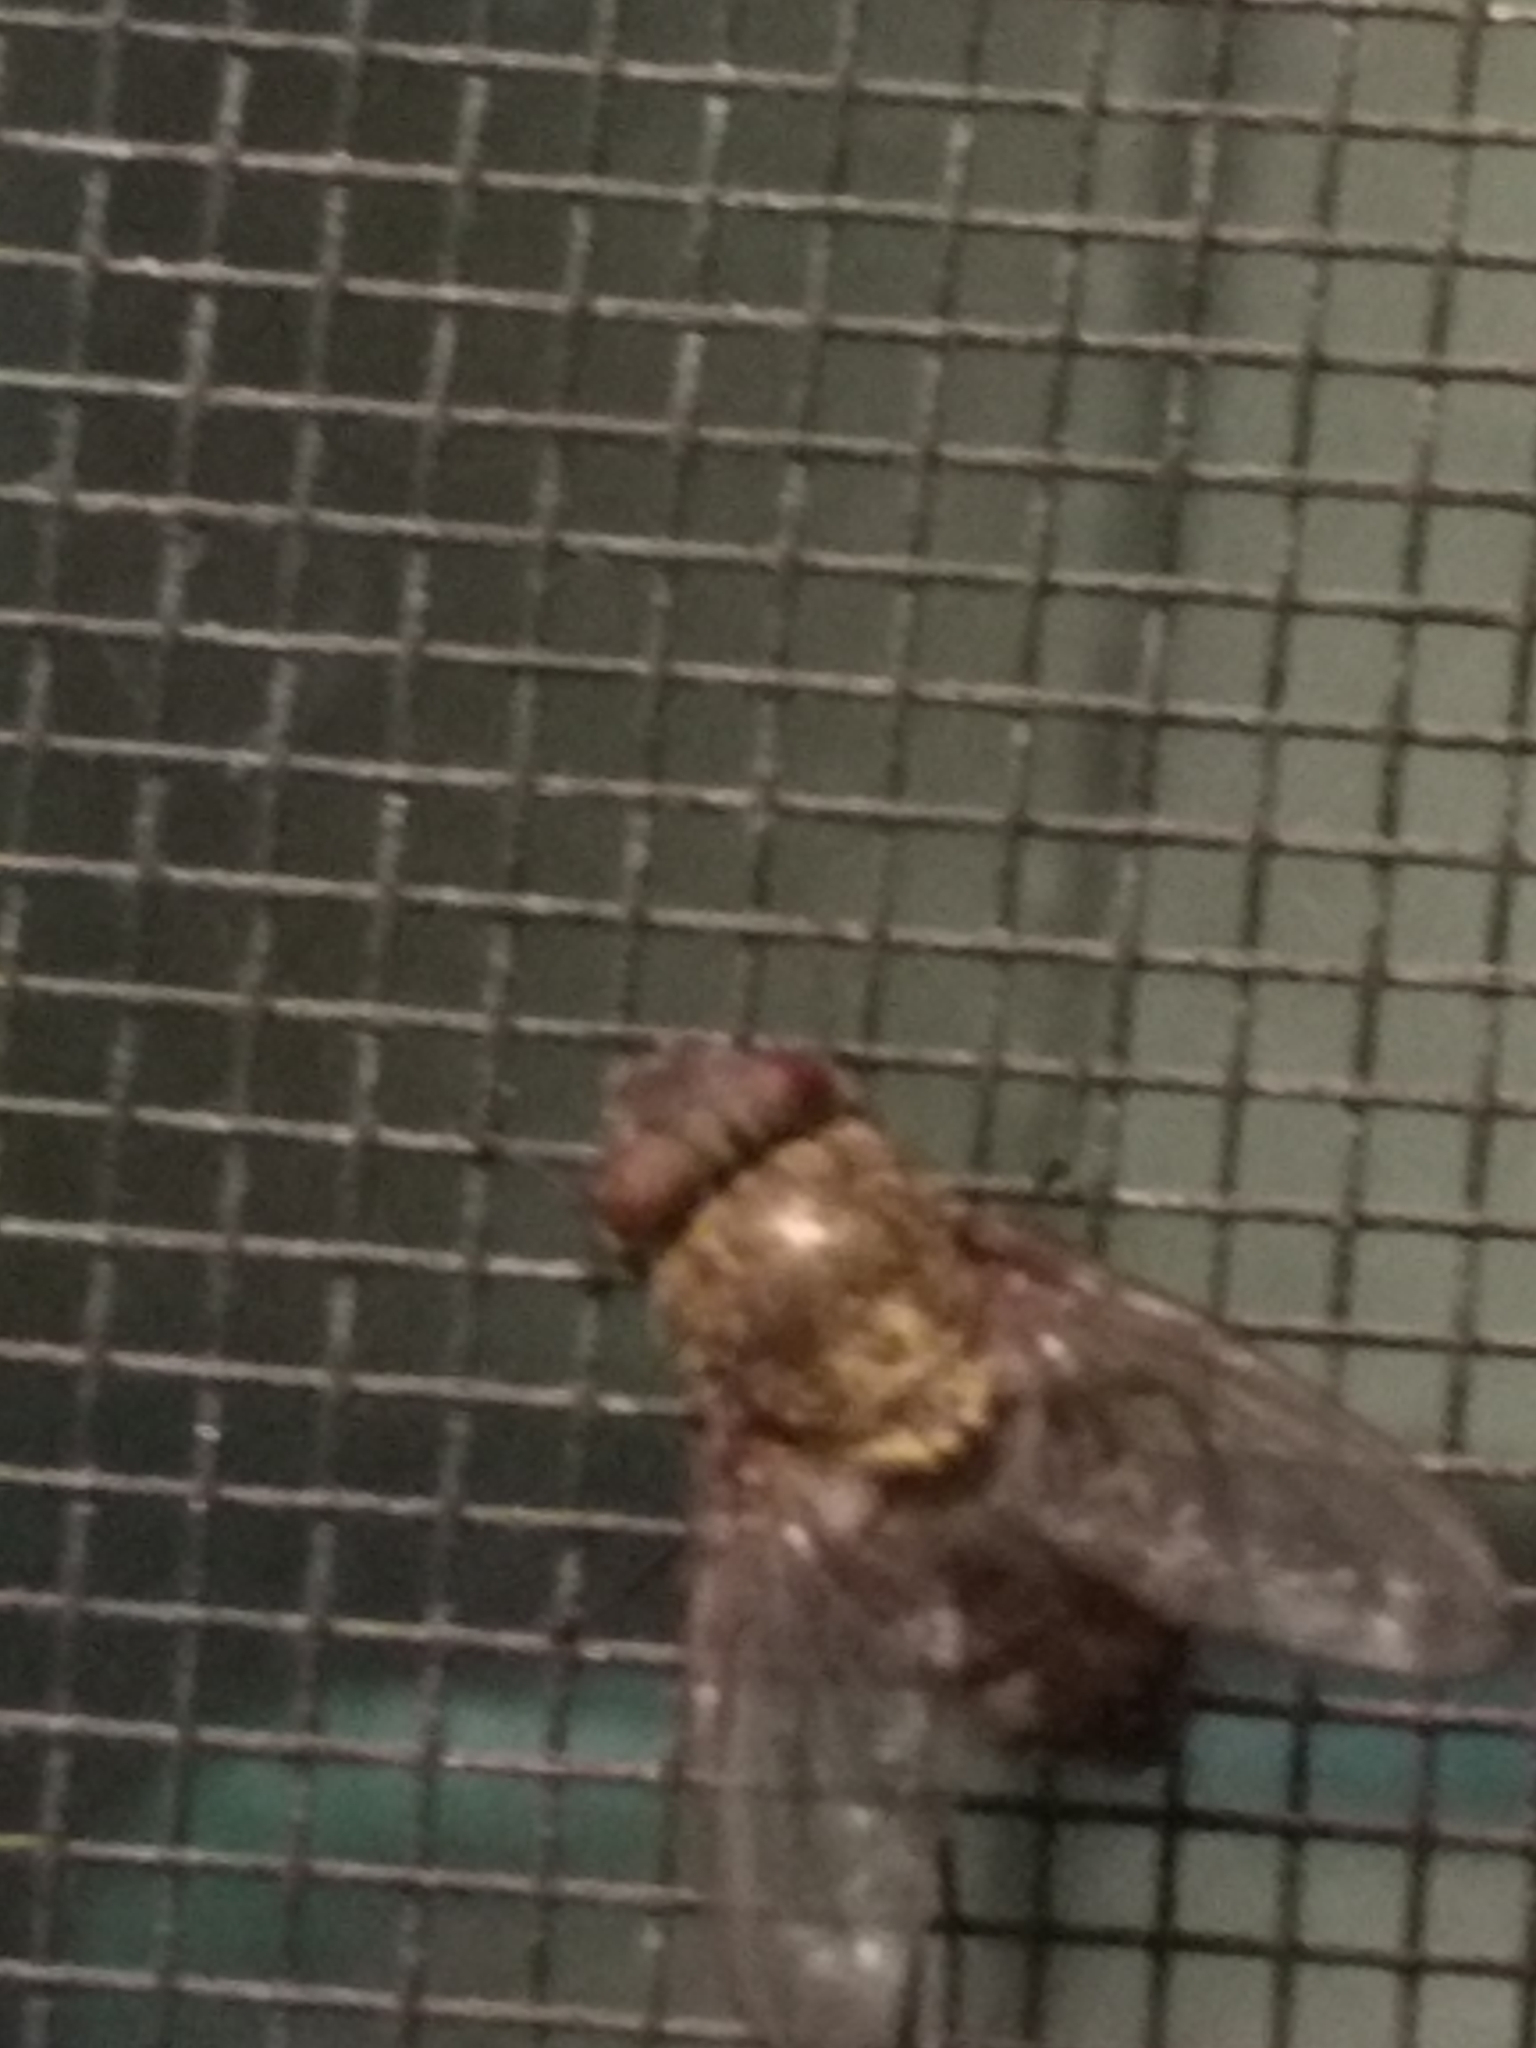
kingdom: Animalia
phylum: Arthropoda
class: Insecta
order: Diptera
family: Polleniidae
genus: Pollenia
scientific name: Pollenia
